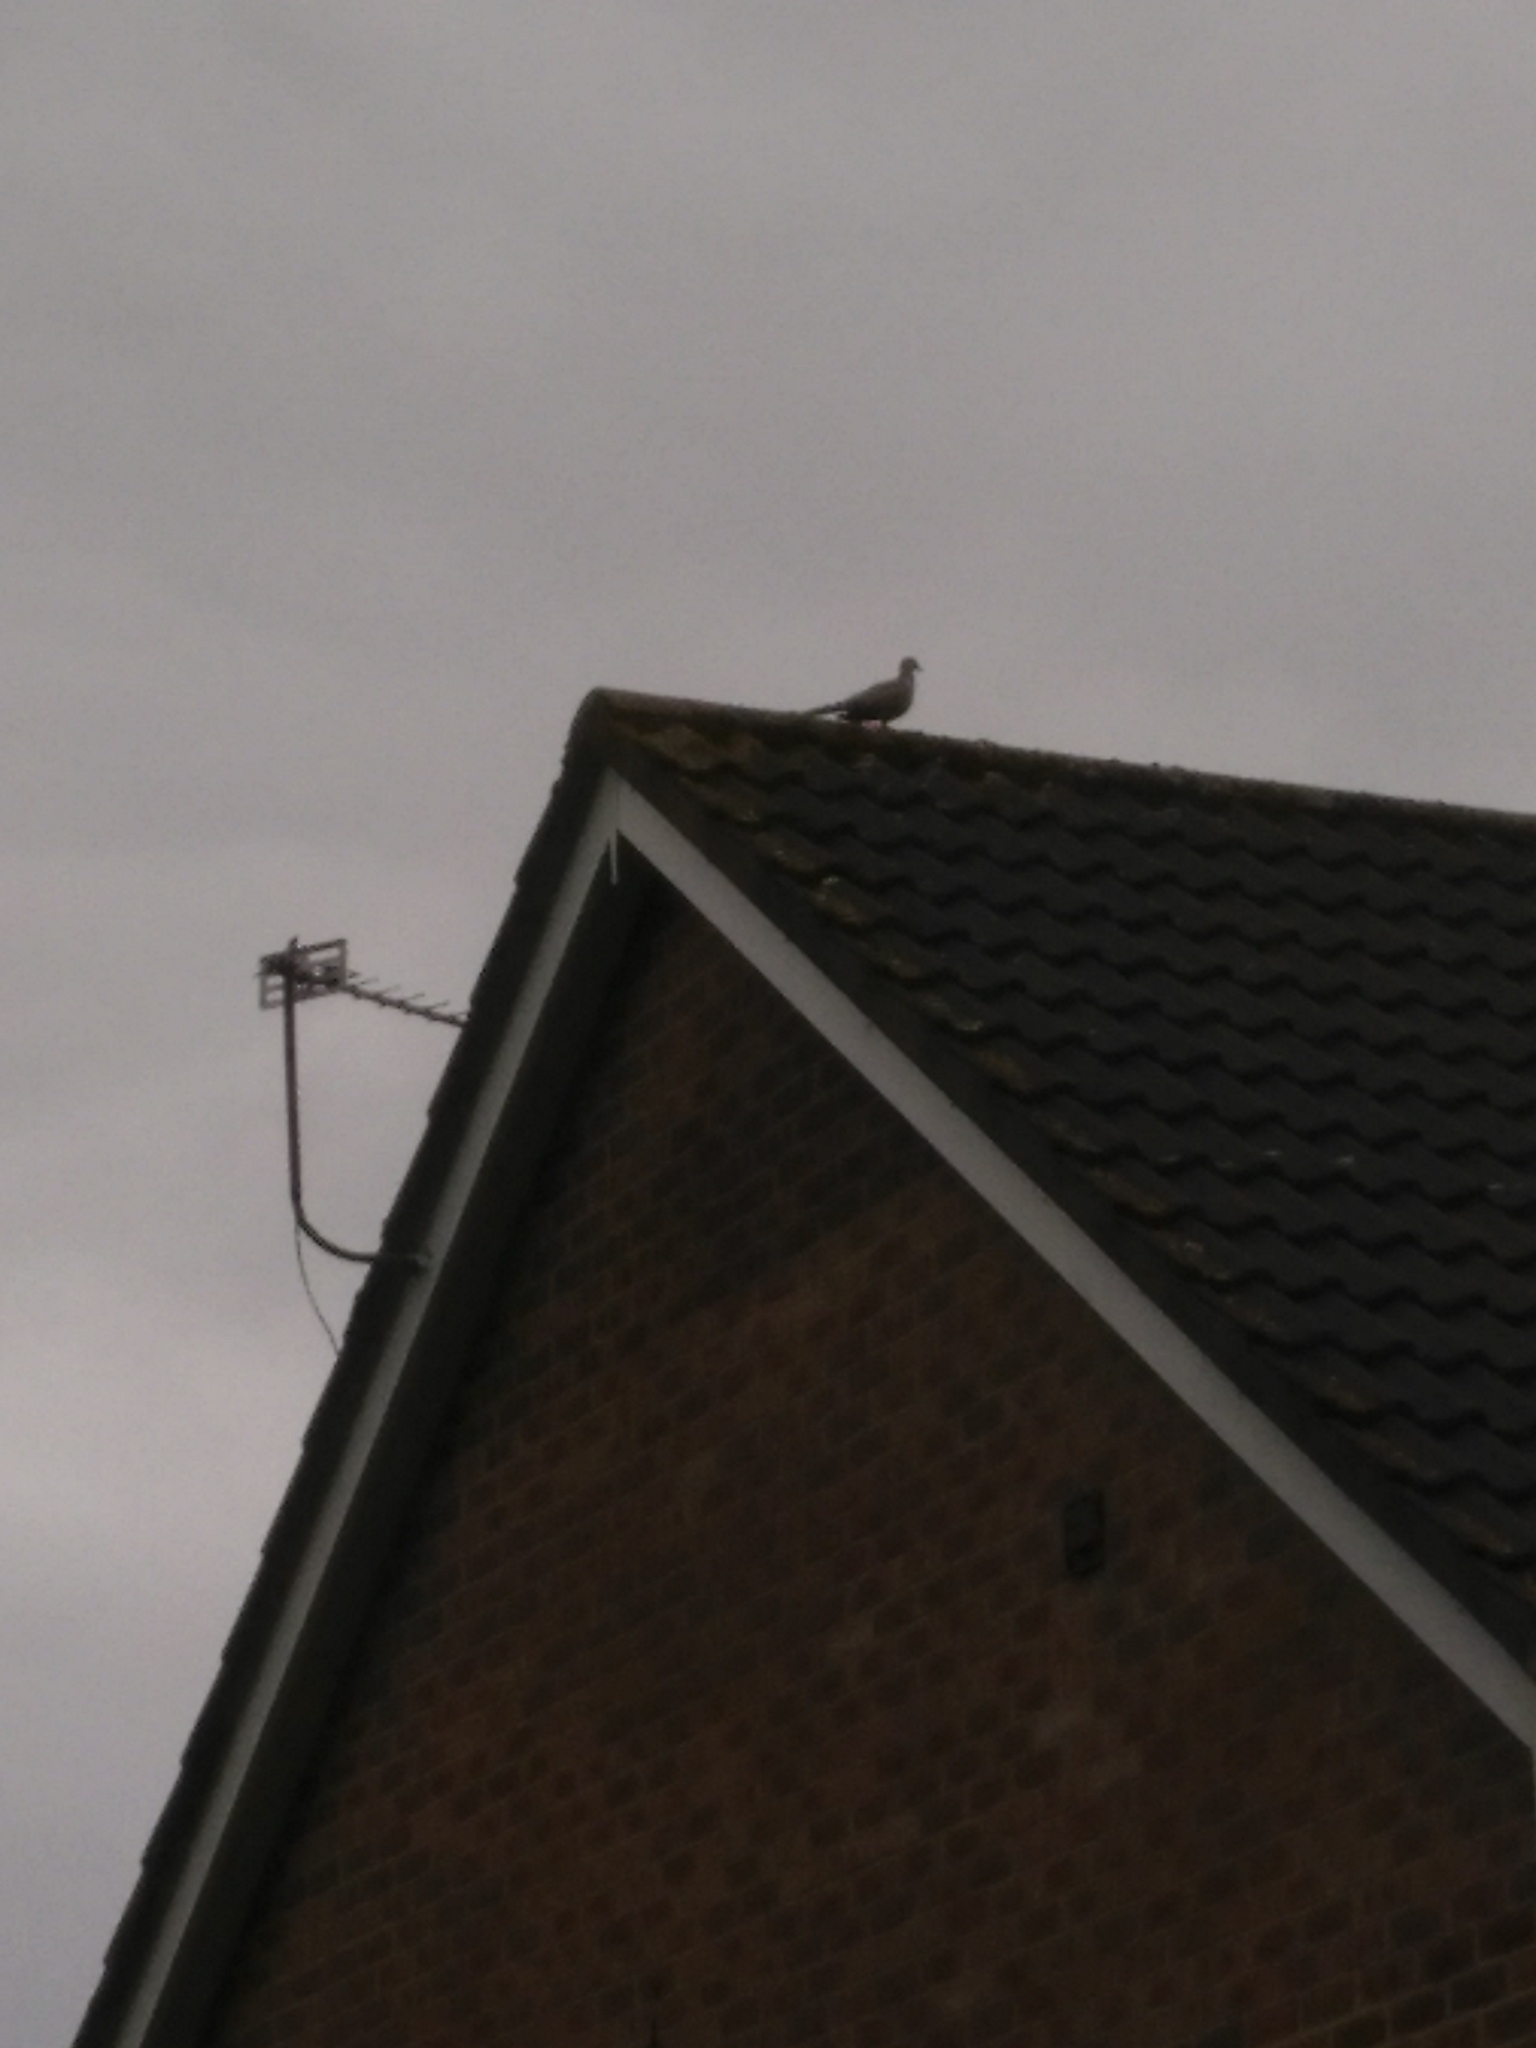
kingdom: Animalia
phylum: Chordata
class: Aves
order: Columbiformes
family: Columbidae
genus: Streptopelia
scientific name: Streptopelia decaocto
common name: Eurasian collared dove
